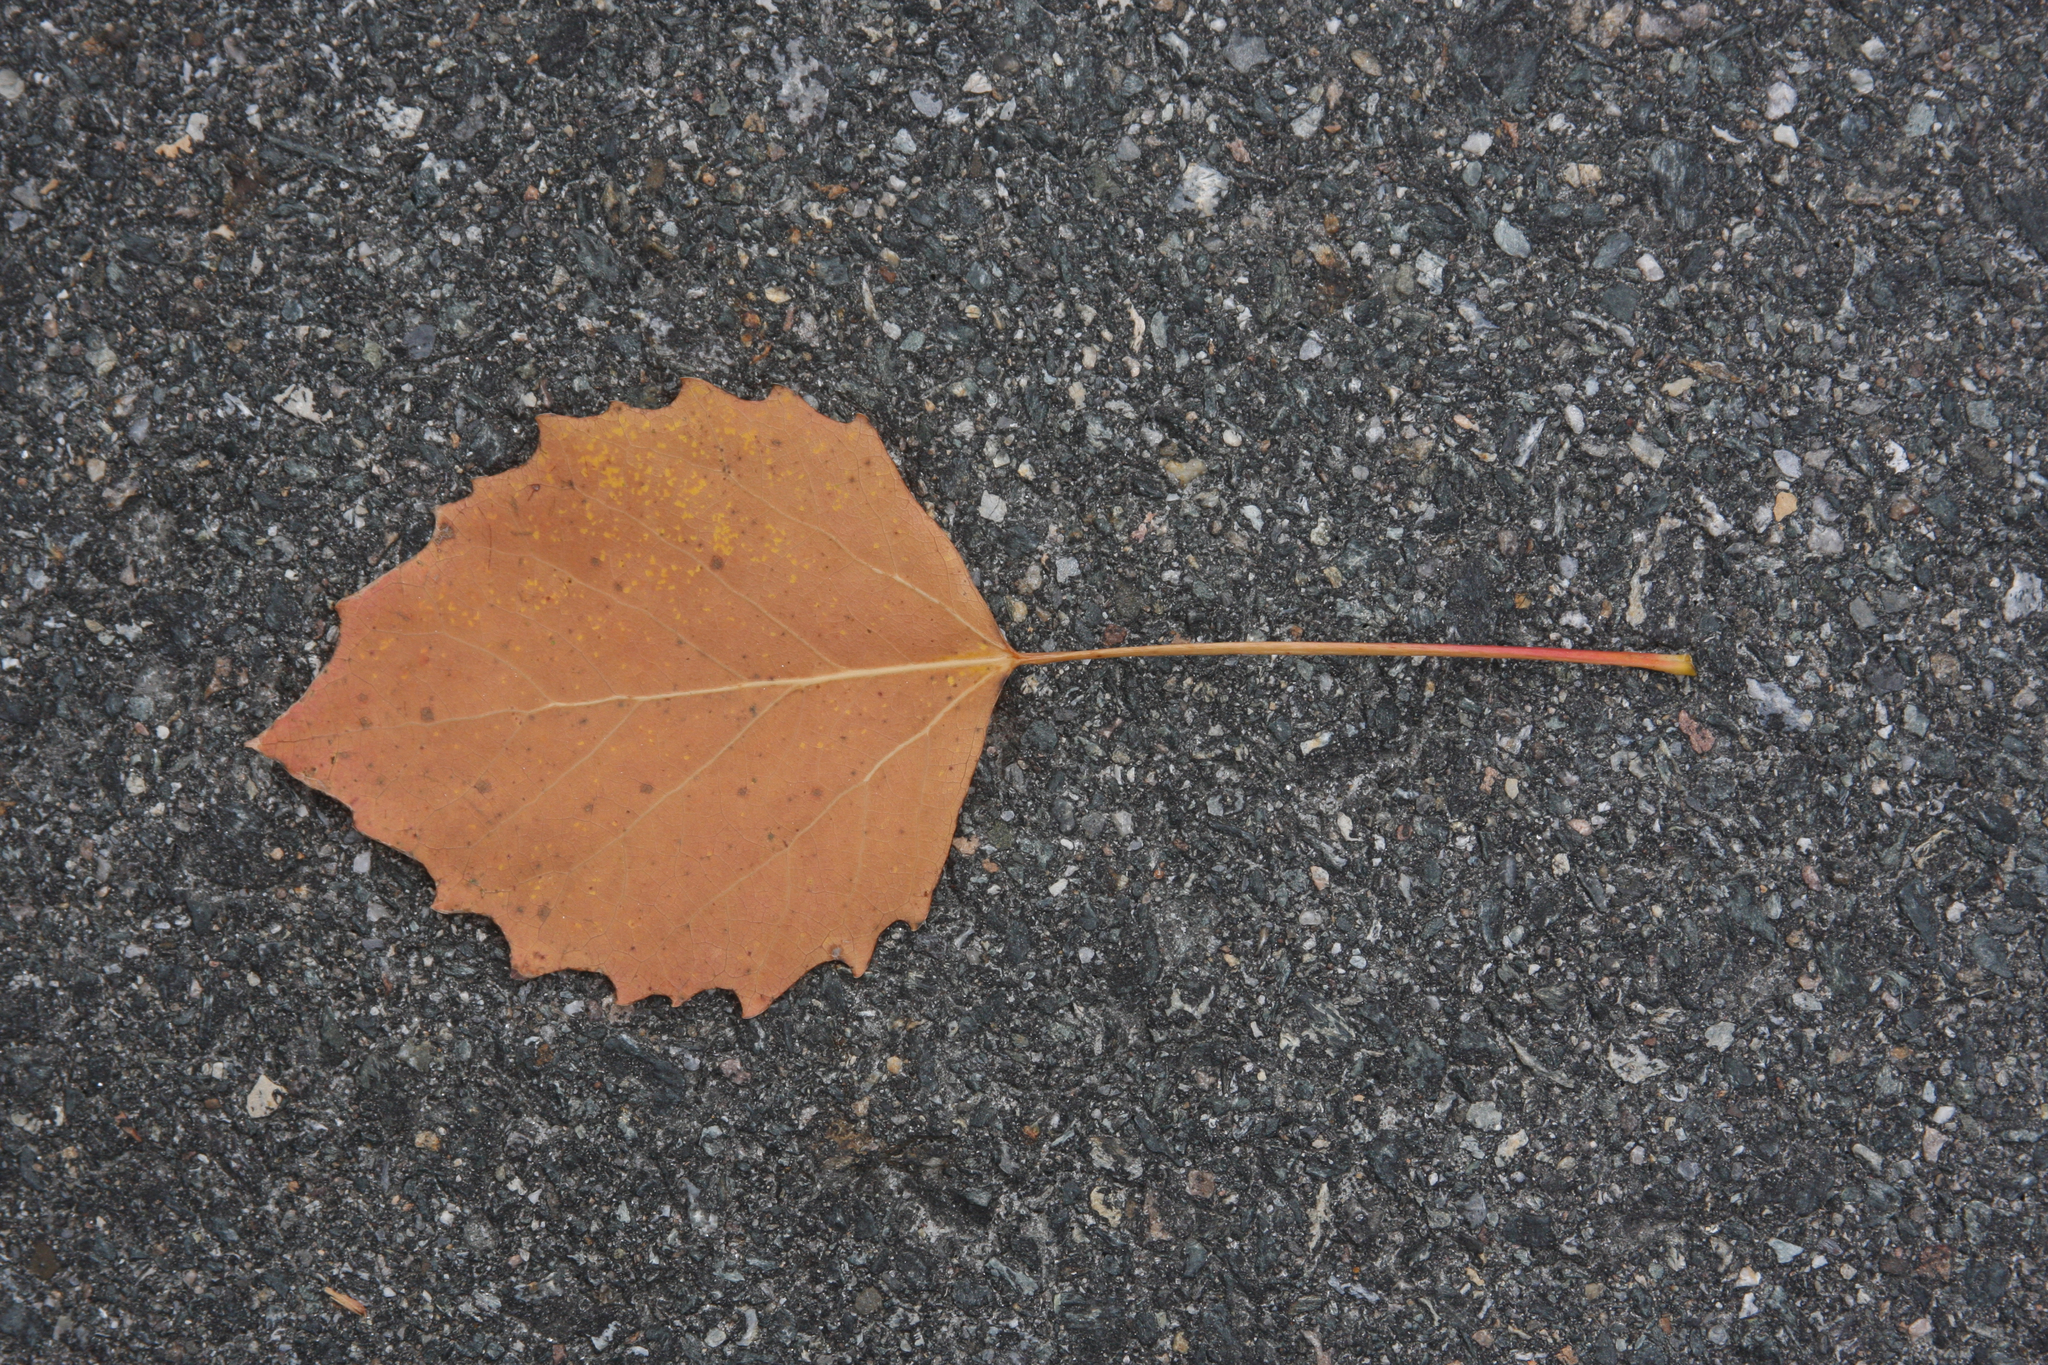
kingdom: Plantae
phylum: Tracheophyta
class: Magnoliopsida
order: Malpighiales
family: Salicaceae
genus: Populus
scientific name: Populus grandidentata
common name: Bigtooth aspen
